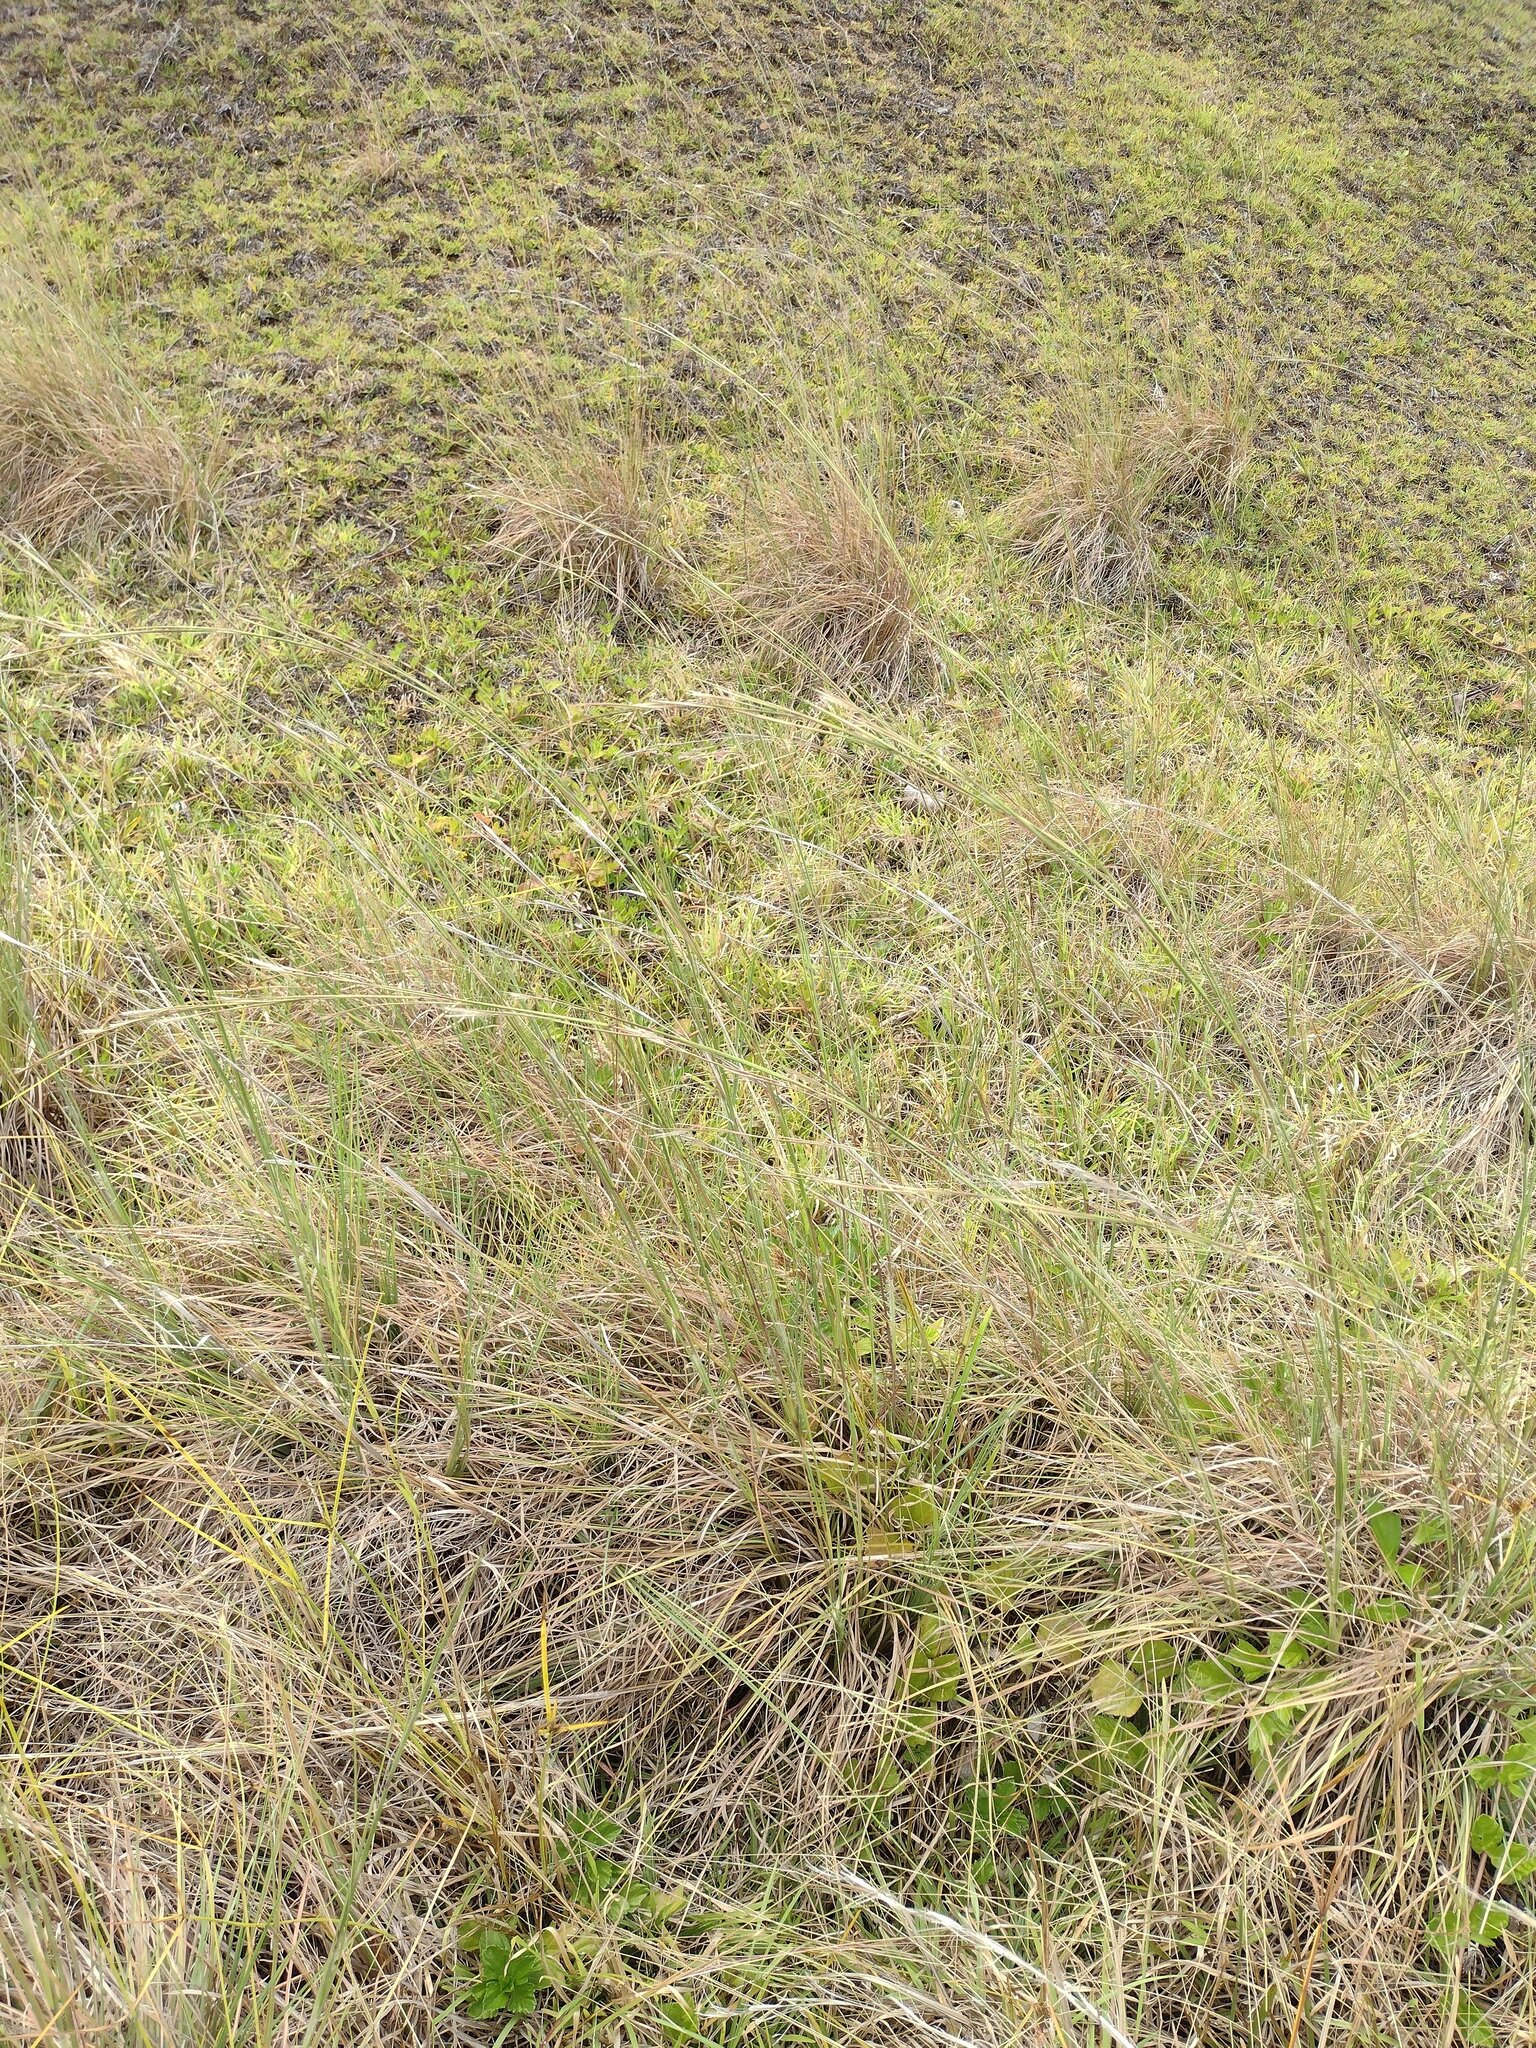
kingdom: Plantae
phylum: Tracheophyta
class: Liliopsida
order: Poales
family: Poaceae
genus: Andropogon
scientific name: Andropogon virginicus
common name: Broomsedge bluestem
